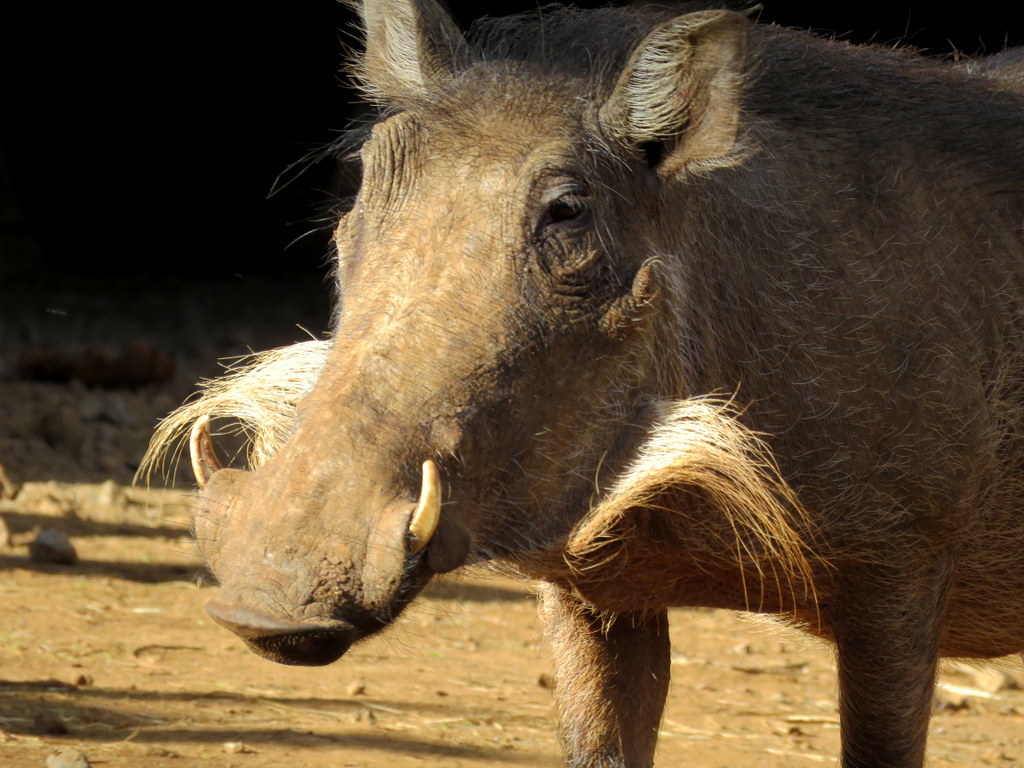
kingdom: Animalia
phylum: Chordata
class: Mammalia
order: Artiodactyla
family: Suidae
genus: Phacochoerus
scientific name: Phacochoerus africanus
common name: Common warthog
